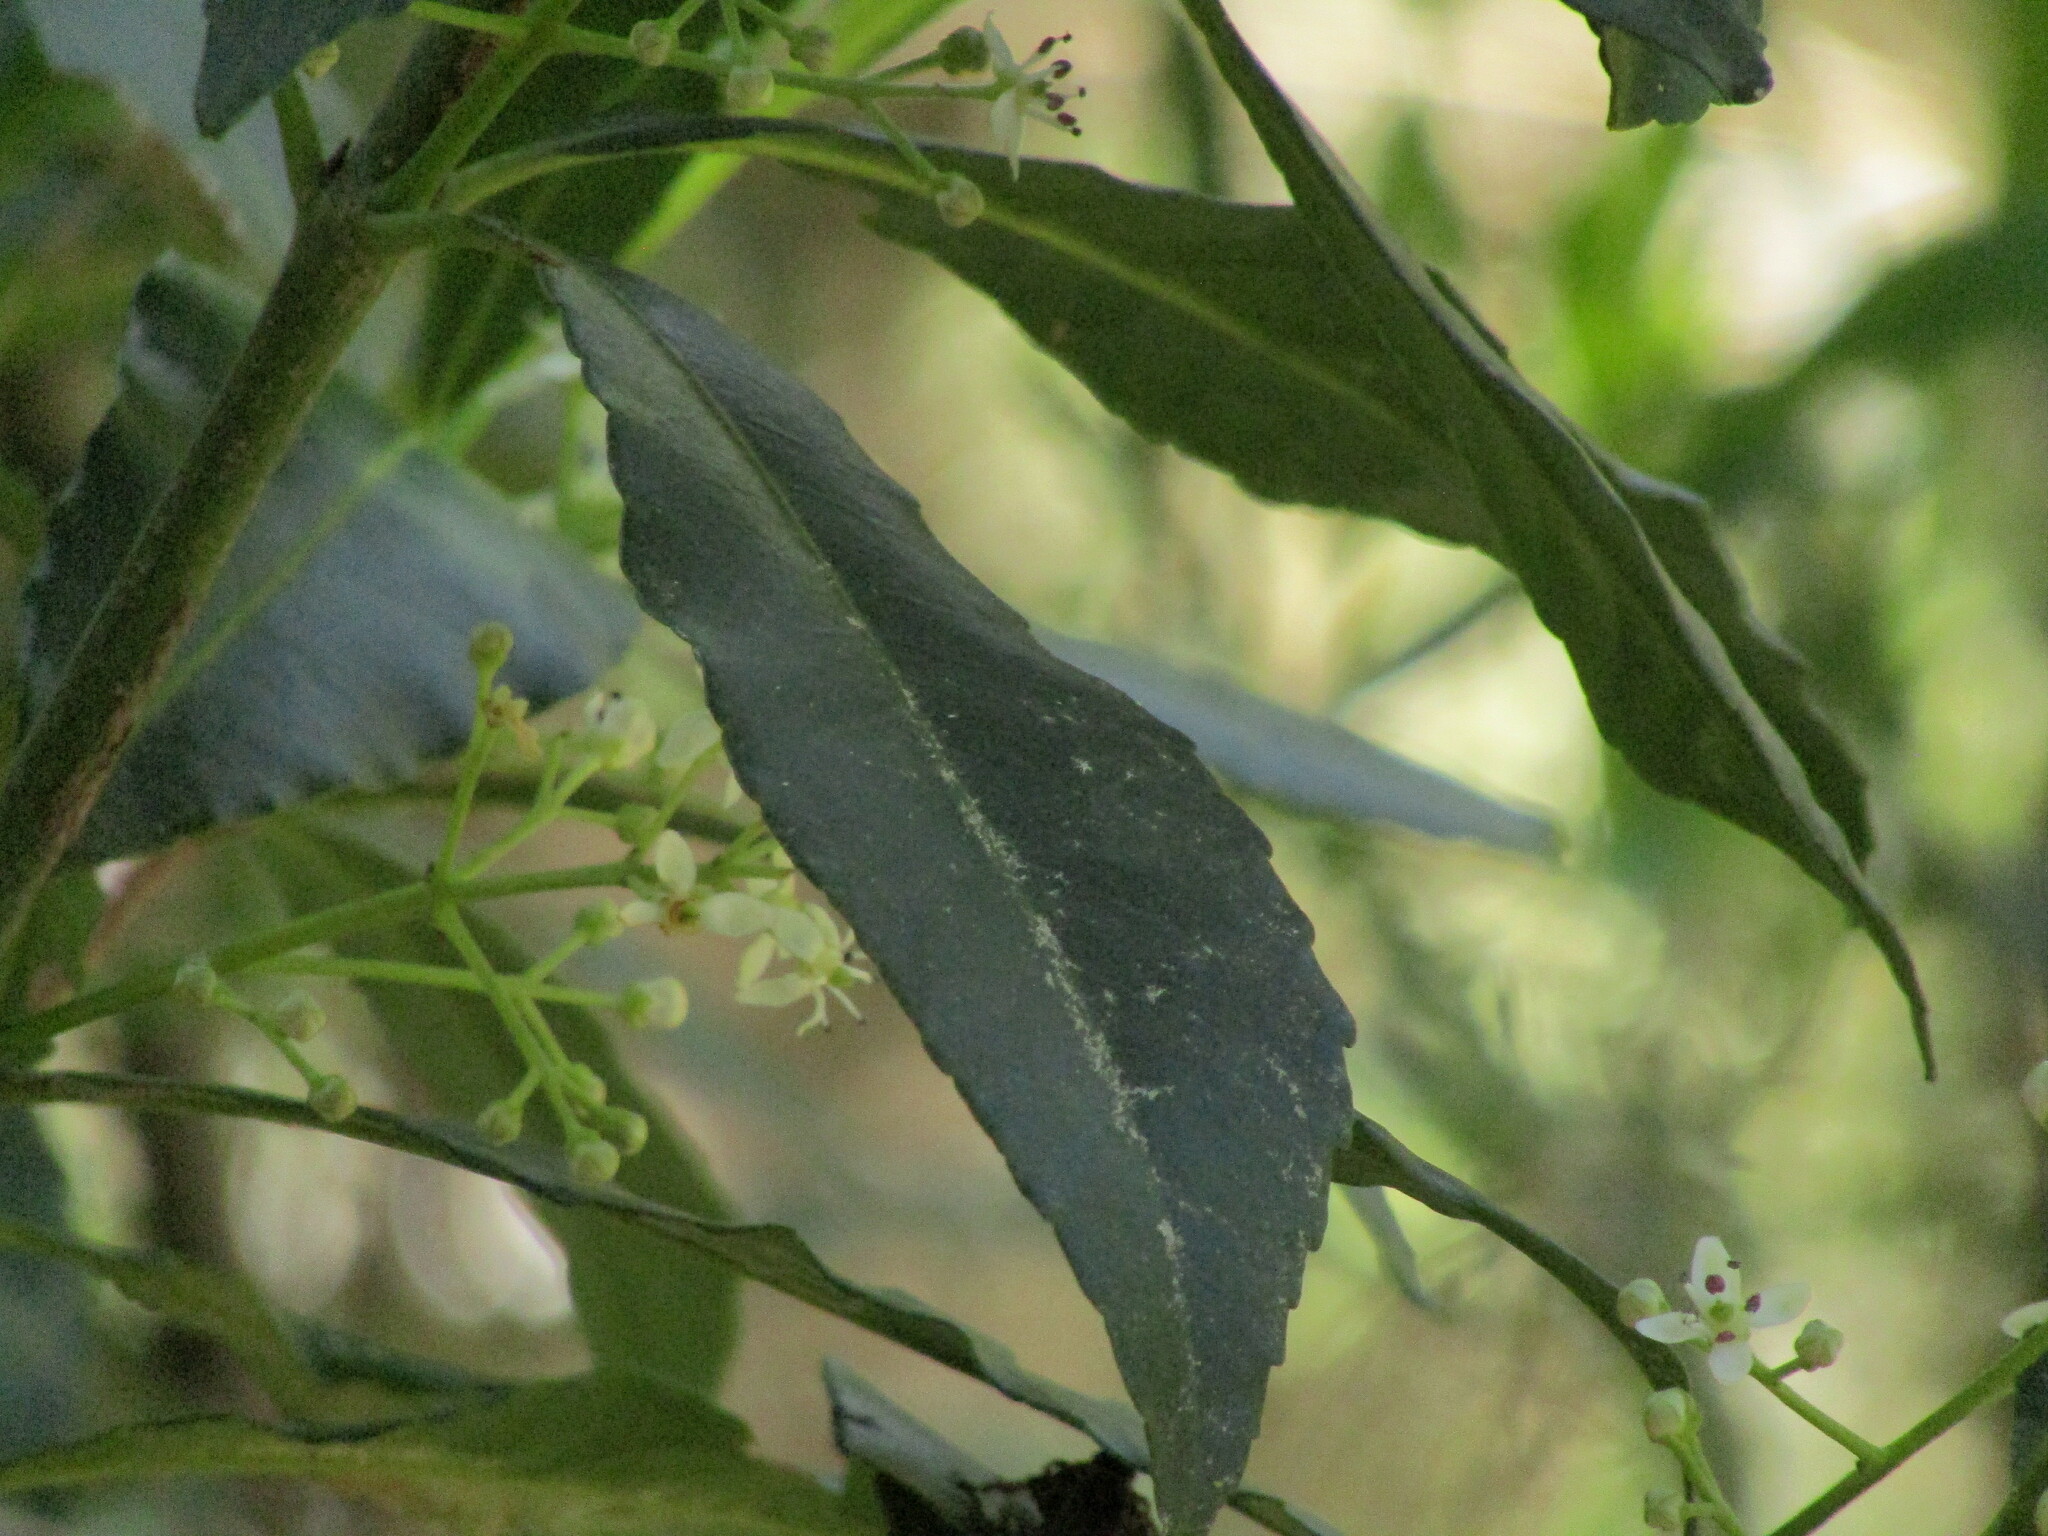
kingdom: Plantae
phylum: Tracheophyta
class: Magnoliopsida
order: Sapindales
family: Rutaceae
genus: Pitavia
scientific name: Pitavia punctata
